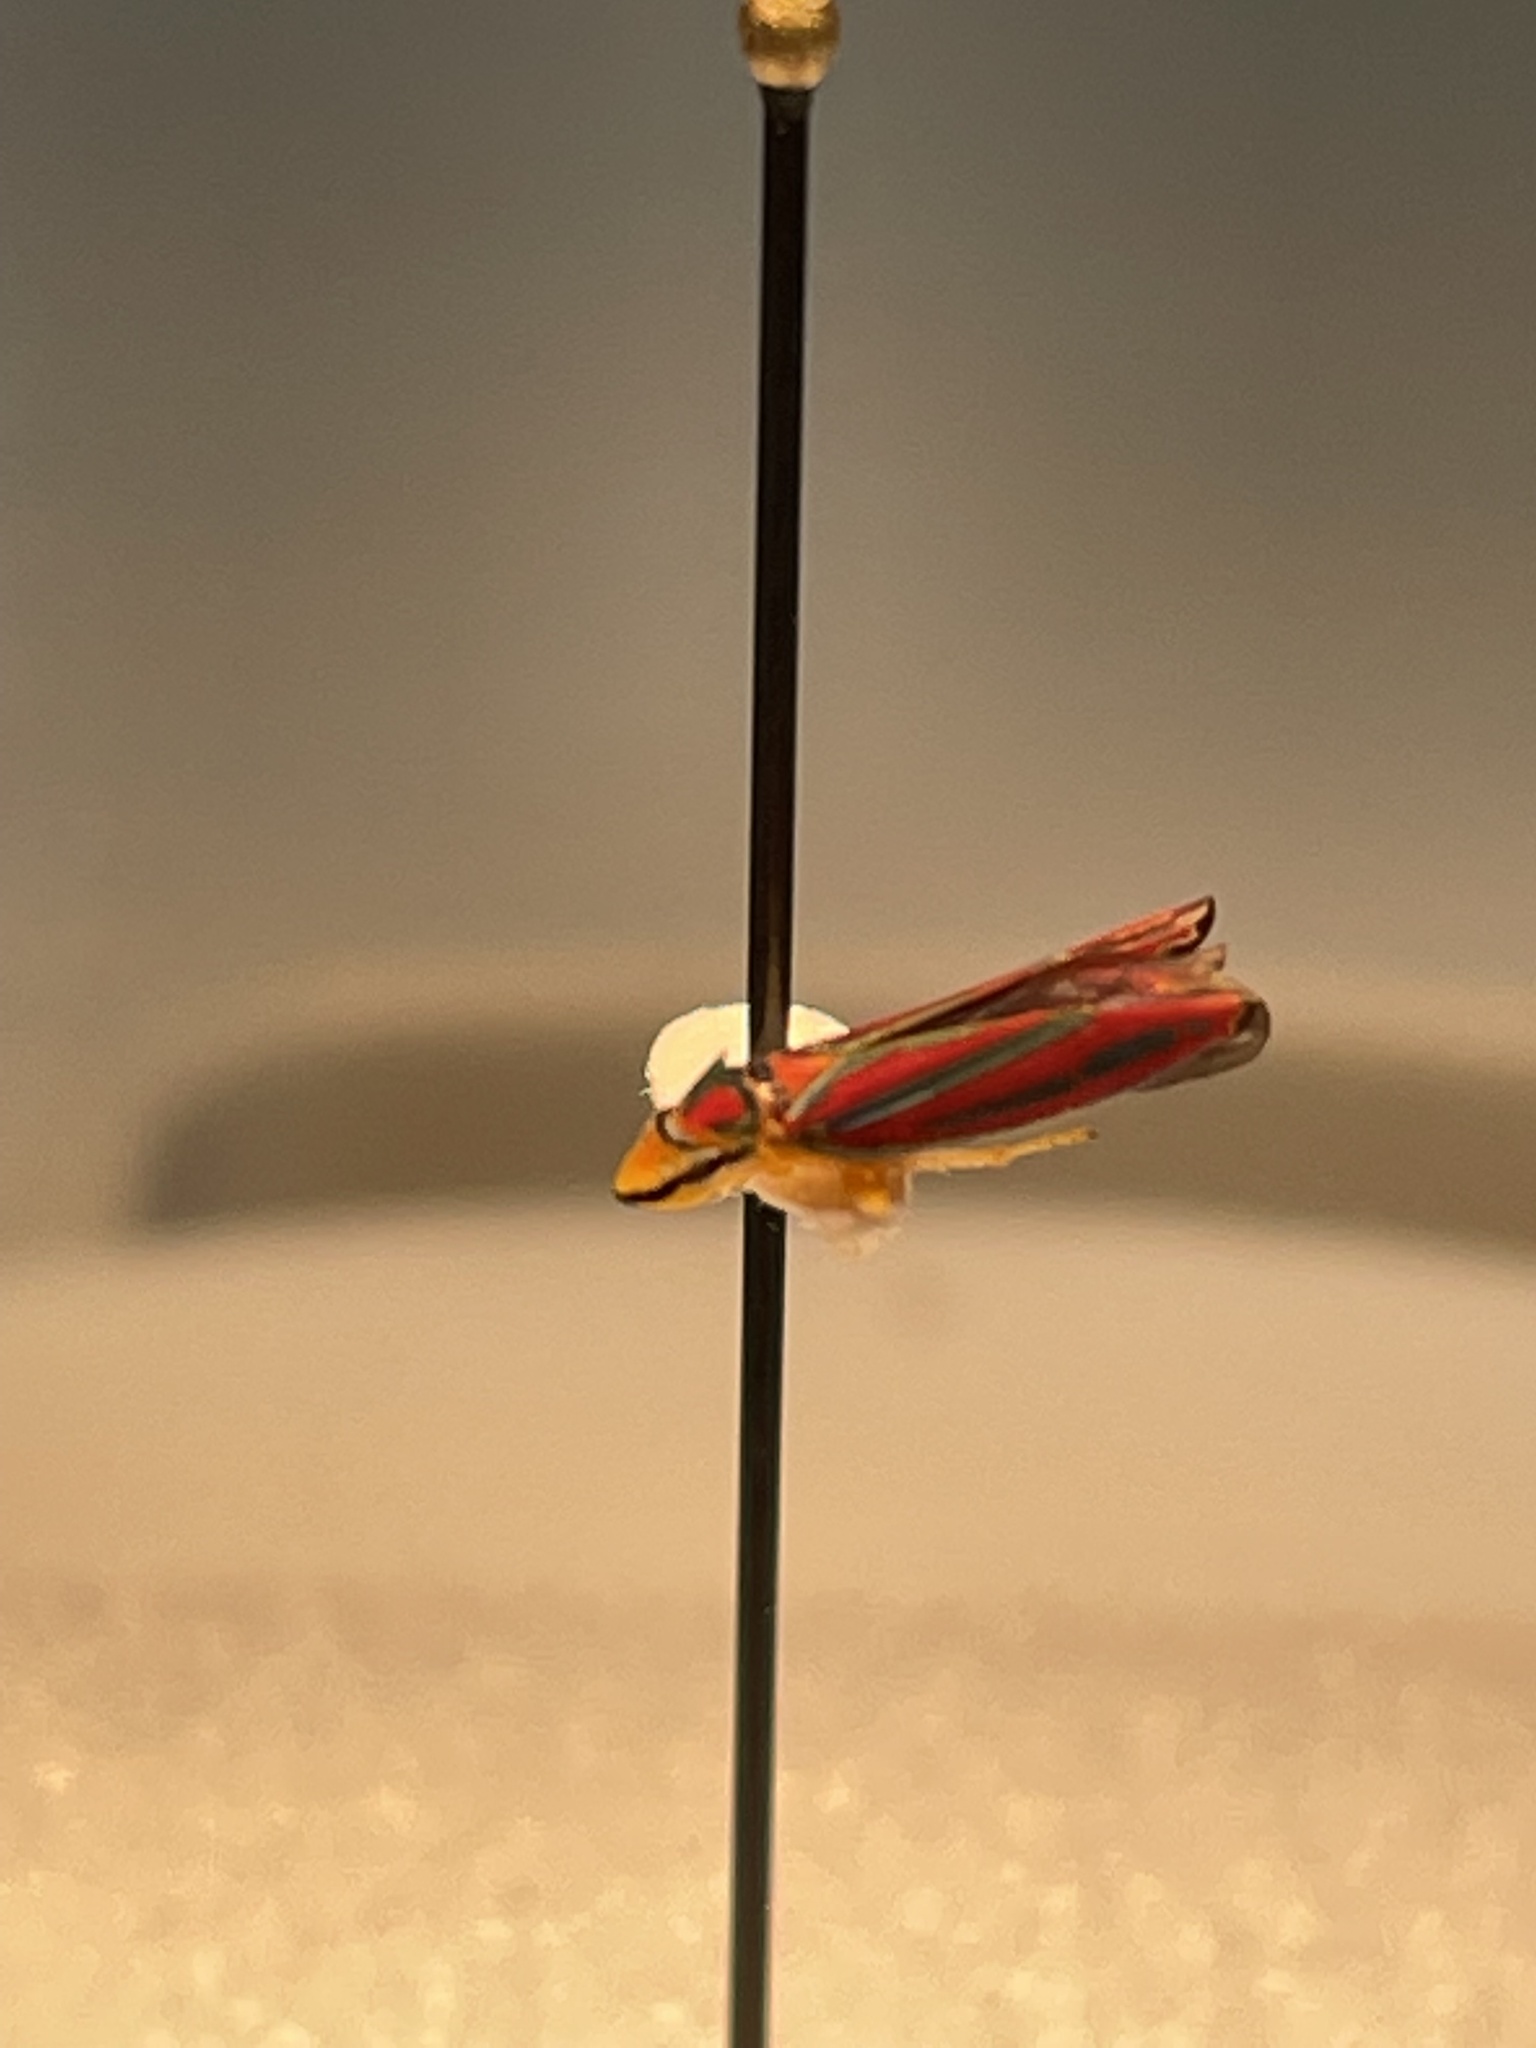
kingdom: Animalia
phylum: Arthropoda
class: Insecta
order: Hemiptera
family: Cicadellidae
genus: Graphocephala
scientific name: Graphocephala coccinea
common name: Candy-striped leafhopper
